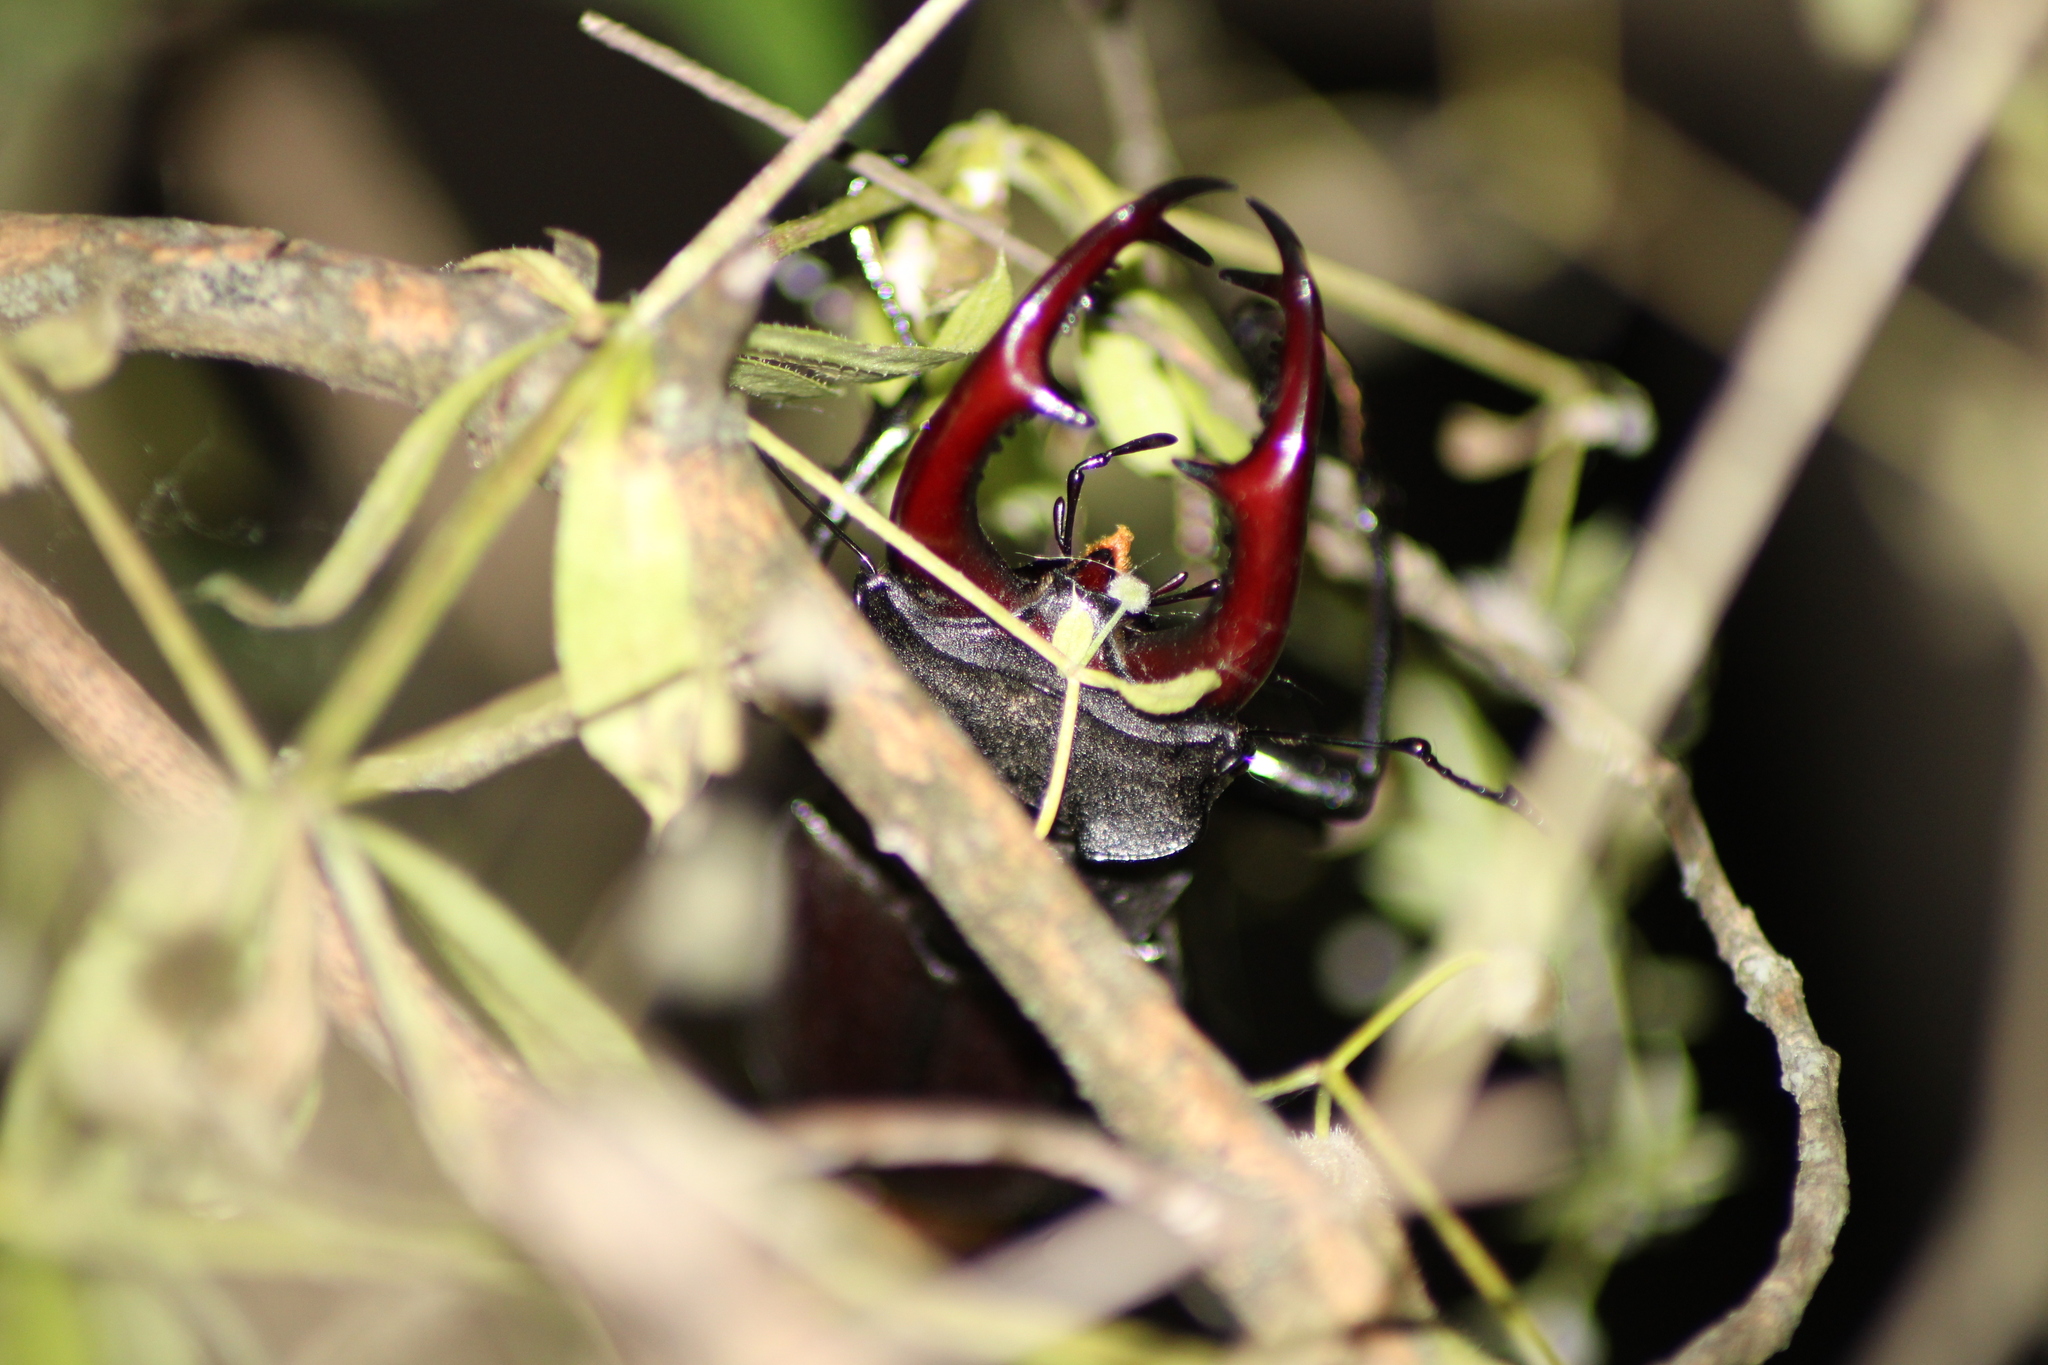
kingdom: Animalia
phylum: Arthropoda
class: Insecta
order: Coleoptera
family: Lucanidae
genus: Lucanus
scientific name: Lucanus cervus
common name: Stag beetle
